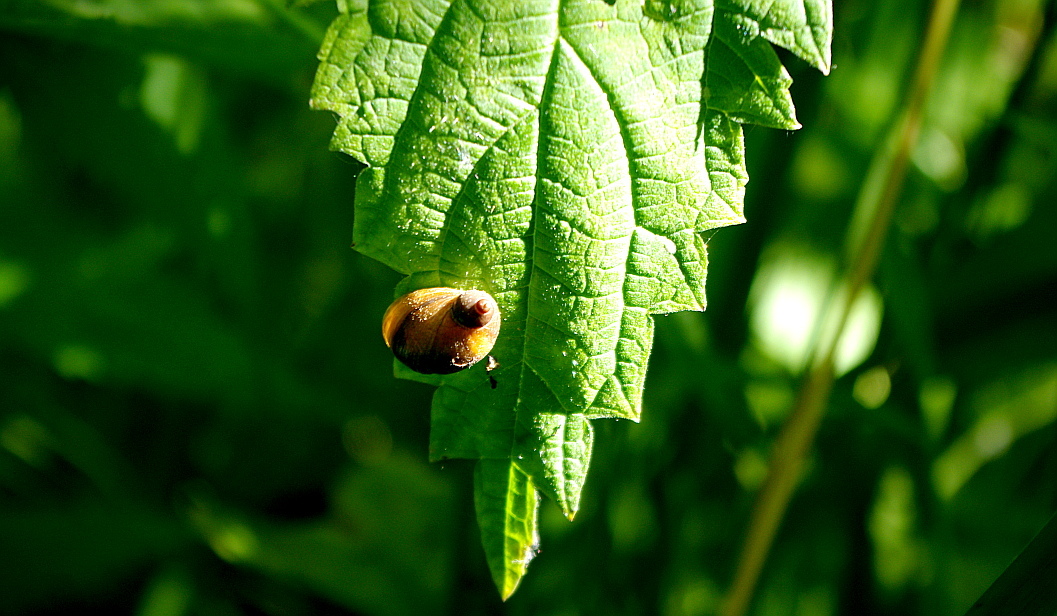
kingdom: Plantae
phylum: Tracheophyta
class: Magnoliopsida
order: Rosales
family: Urticaceae
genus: Urtica
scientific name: Urtica dioica
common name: Common nettle
